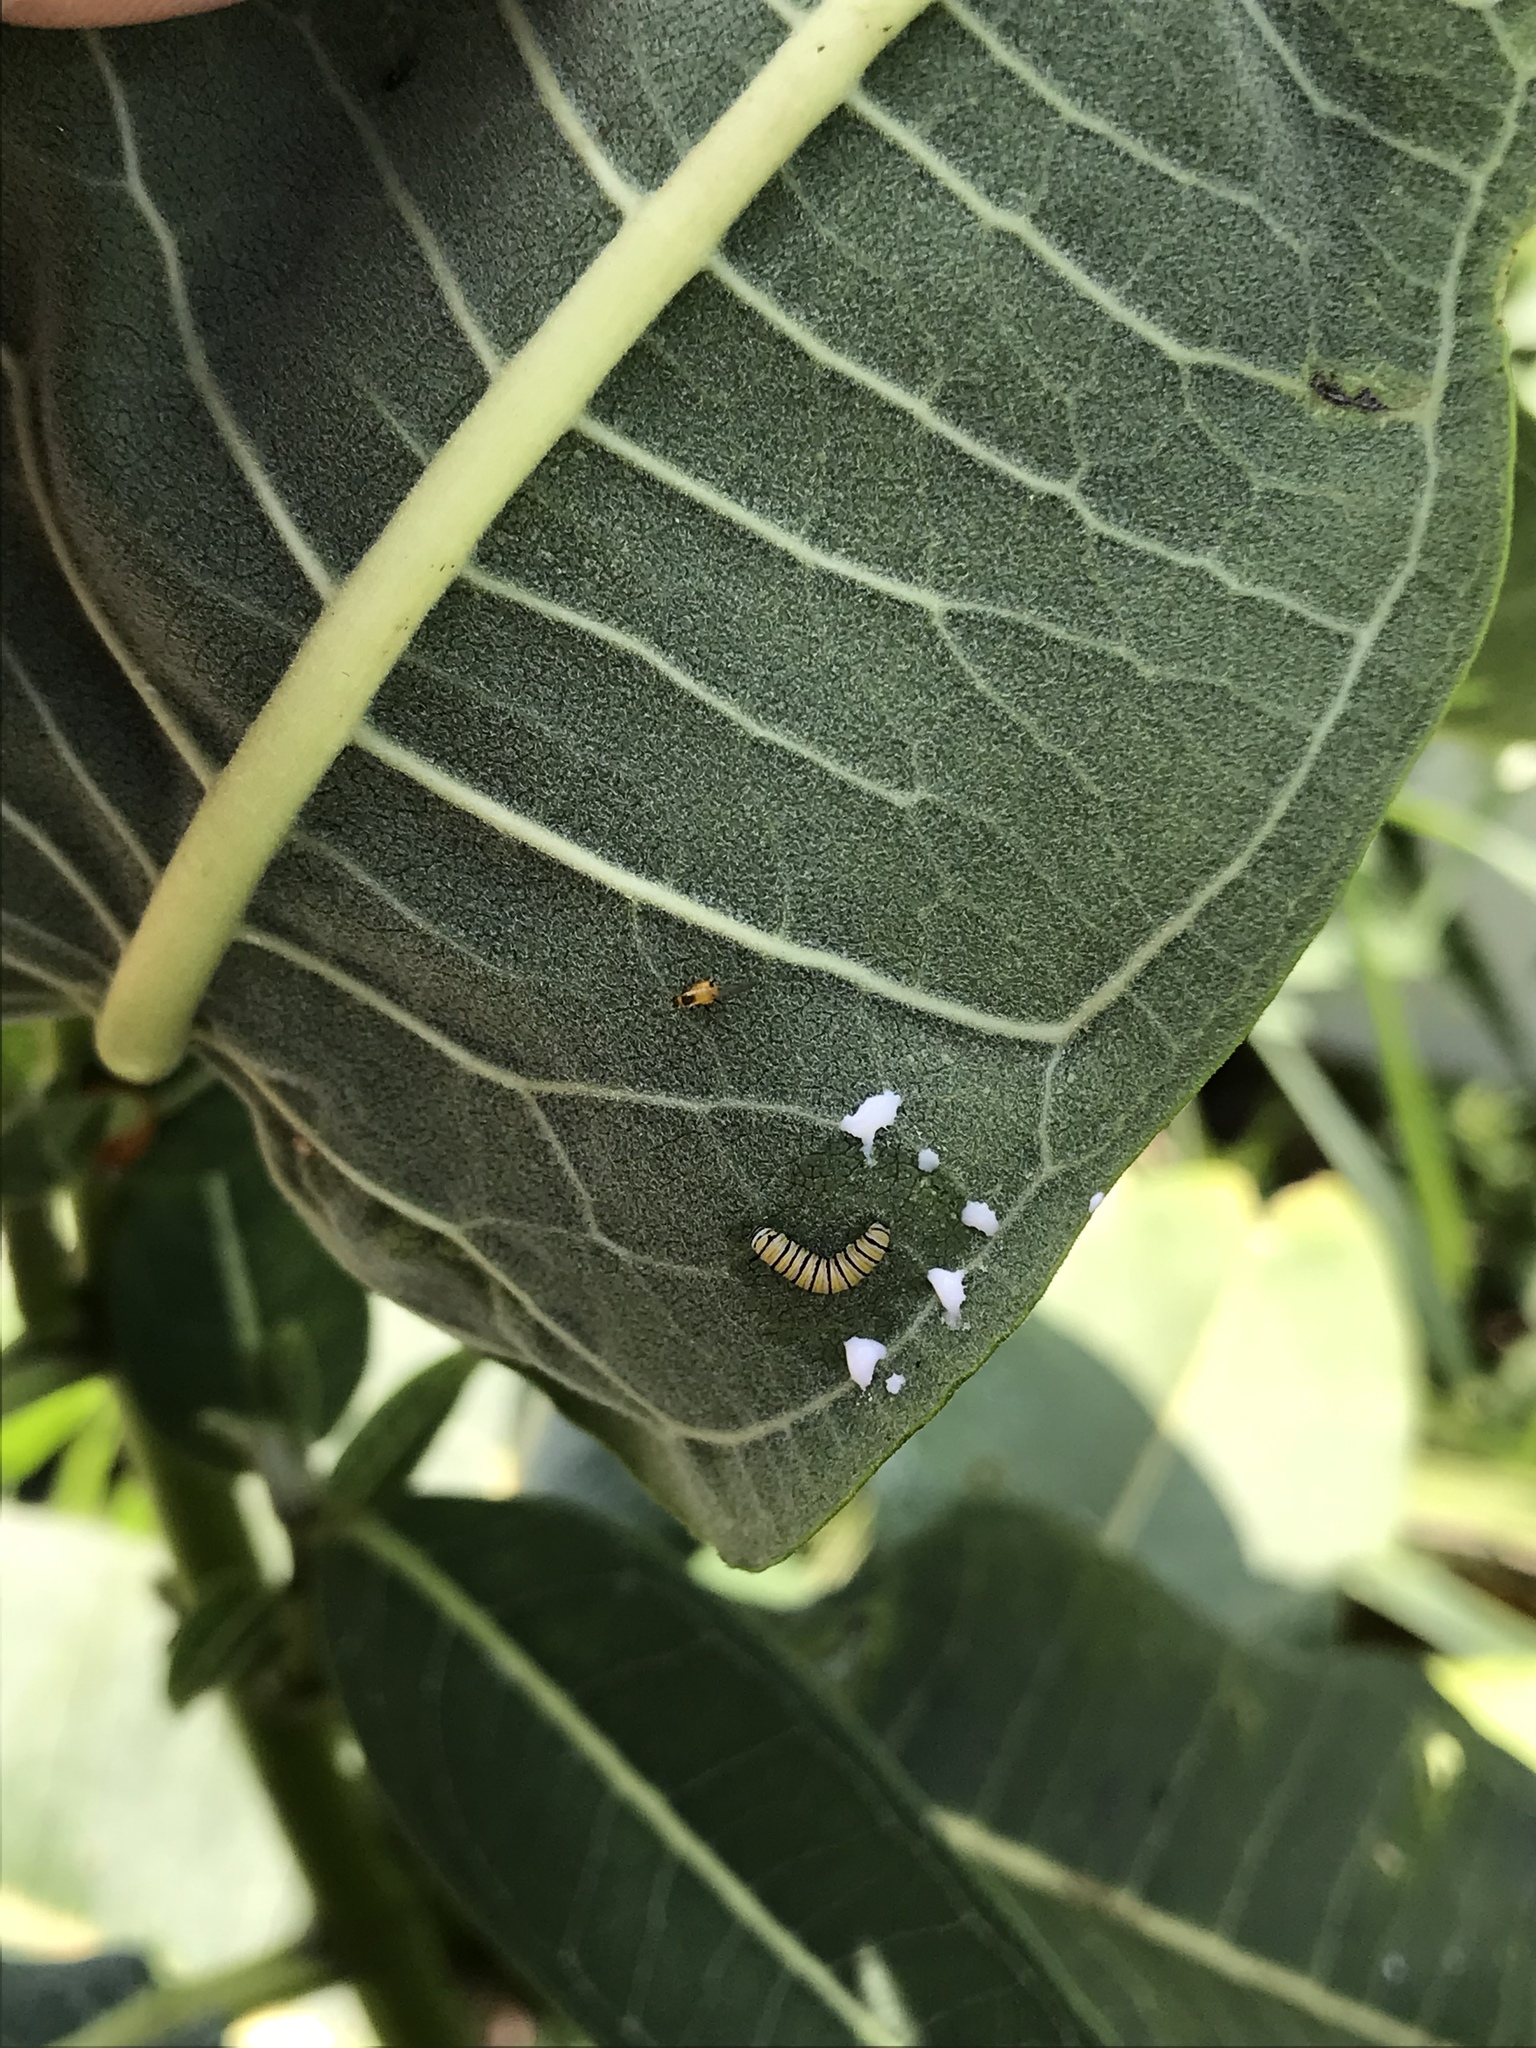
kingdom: Animalia
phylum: Arthropoda
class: Insecta
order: Lepidoptera
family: Nymphalidae
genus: Danaus
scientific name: Danaus plexippus
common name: Monarch
